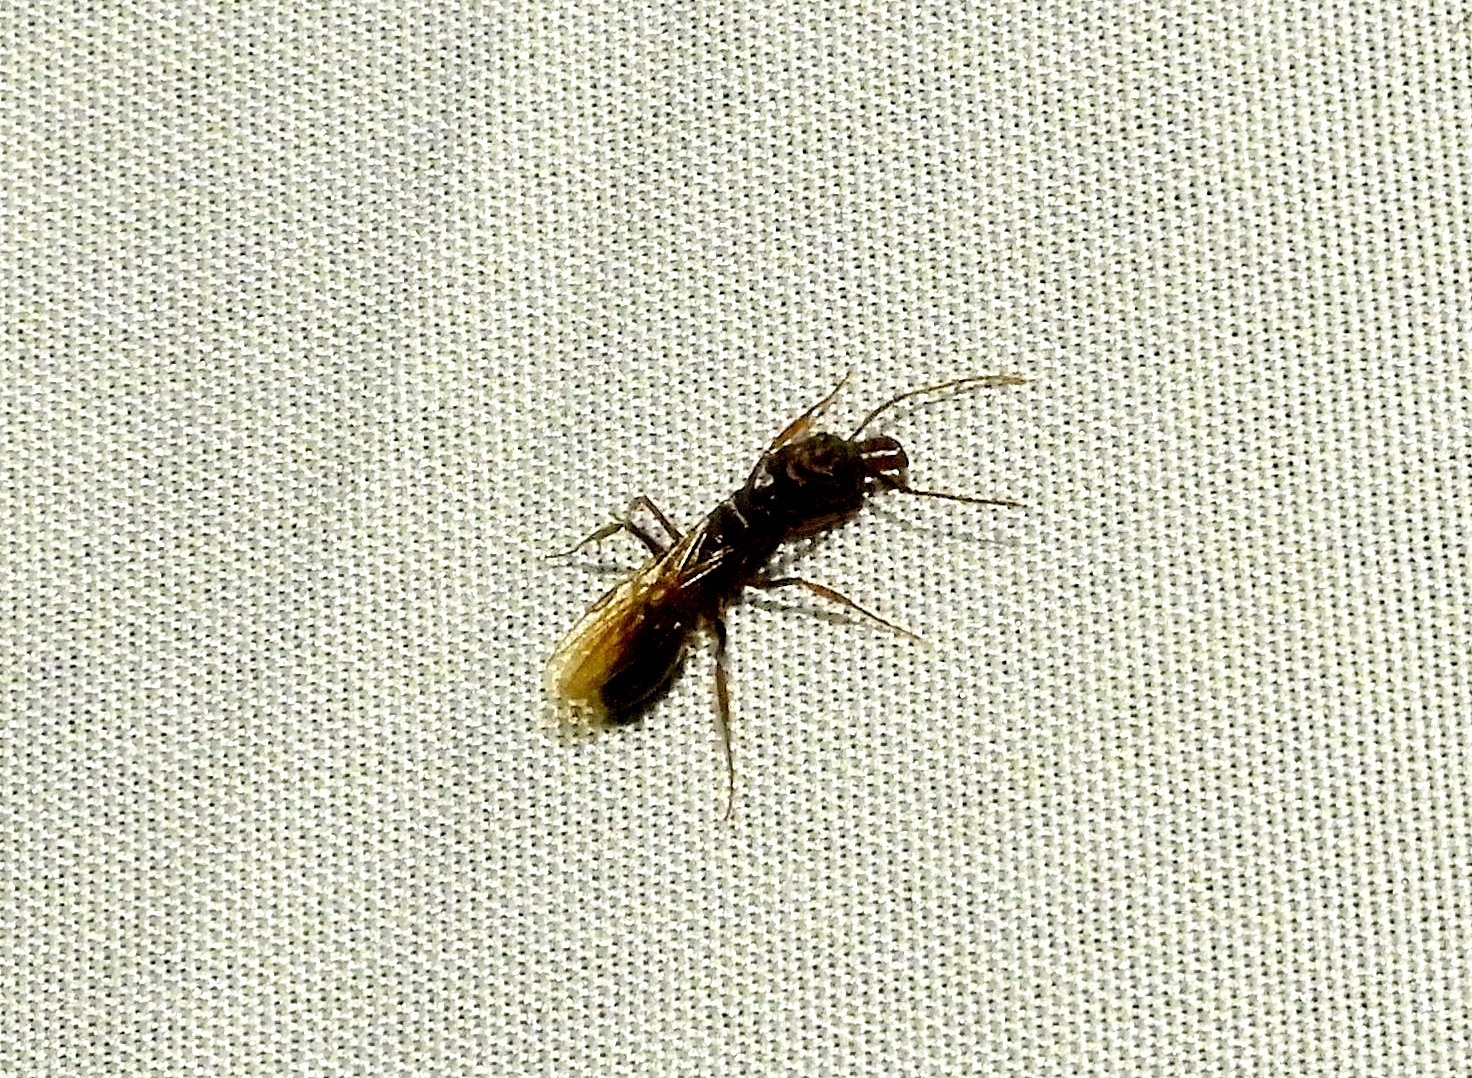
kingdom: Animalia
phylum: Arthropoda
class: Insecta
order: Hymenoptera
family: Formicidae
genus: Odontomachus
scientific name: Odontomachus
